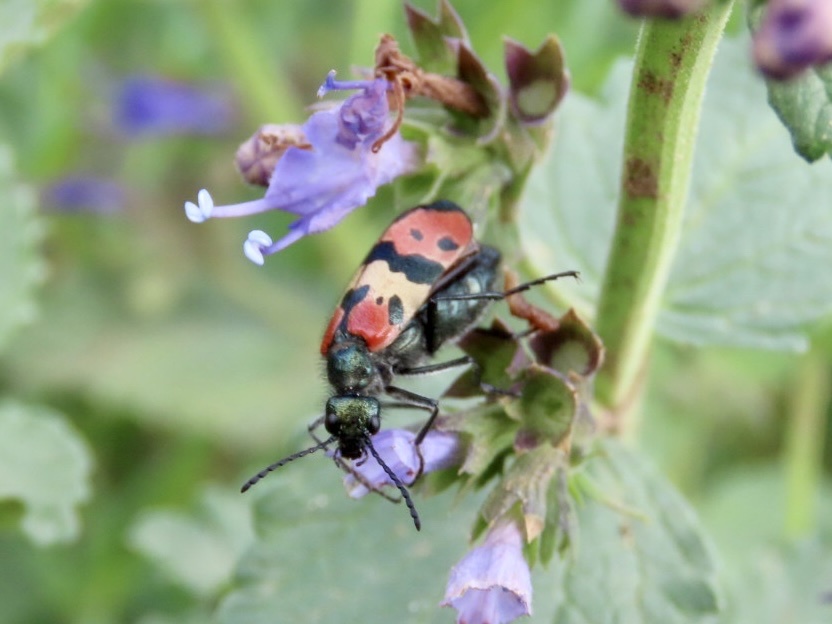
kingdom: Animalia
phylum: Arthropoda
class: Insecta
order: Coleoptera
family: Meloidae
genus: Mylabris
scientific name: Mylabris
